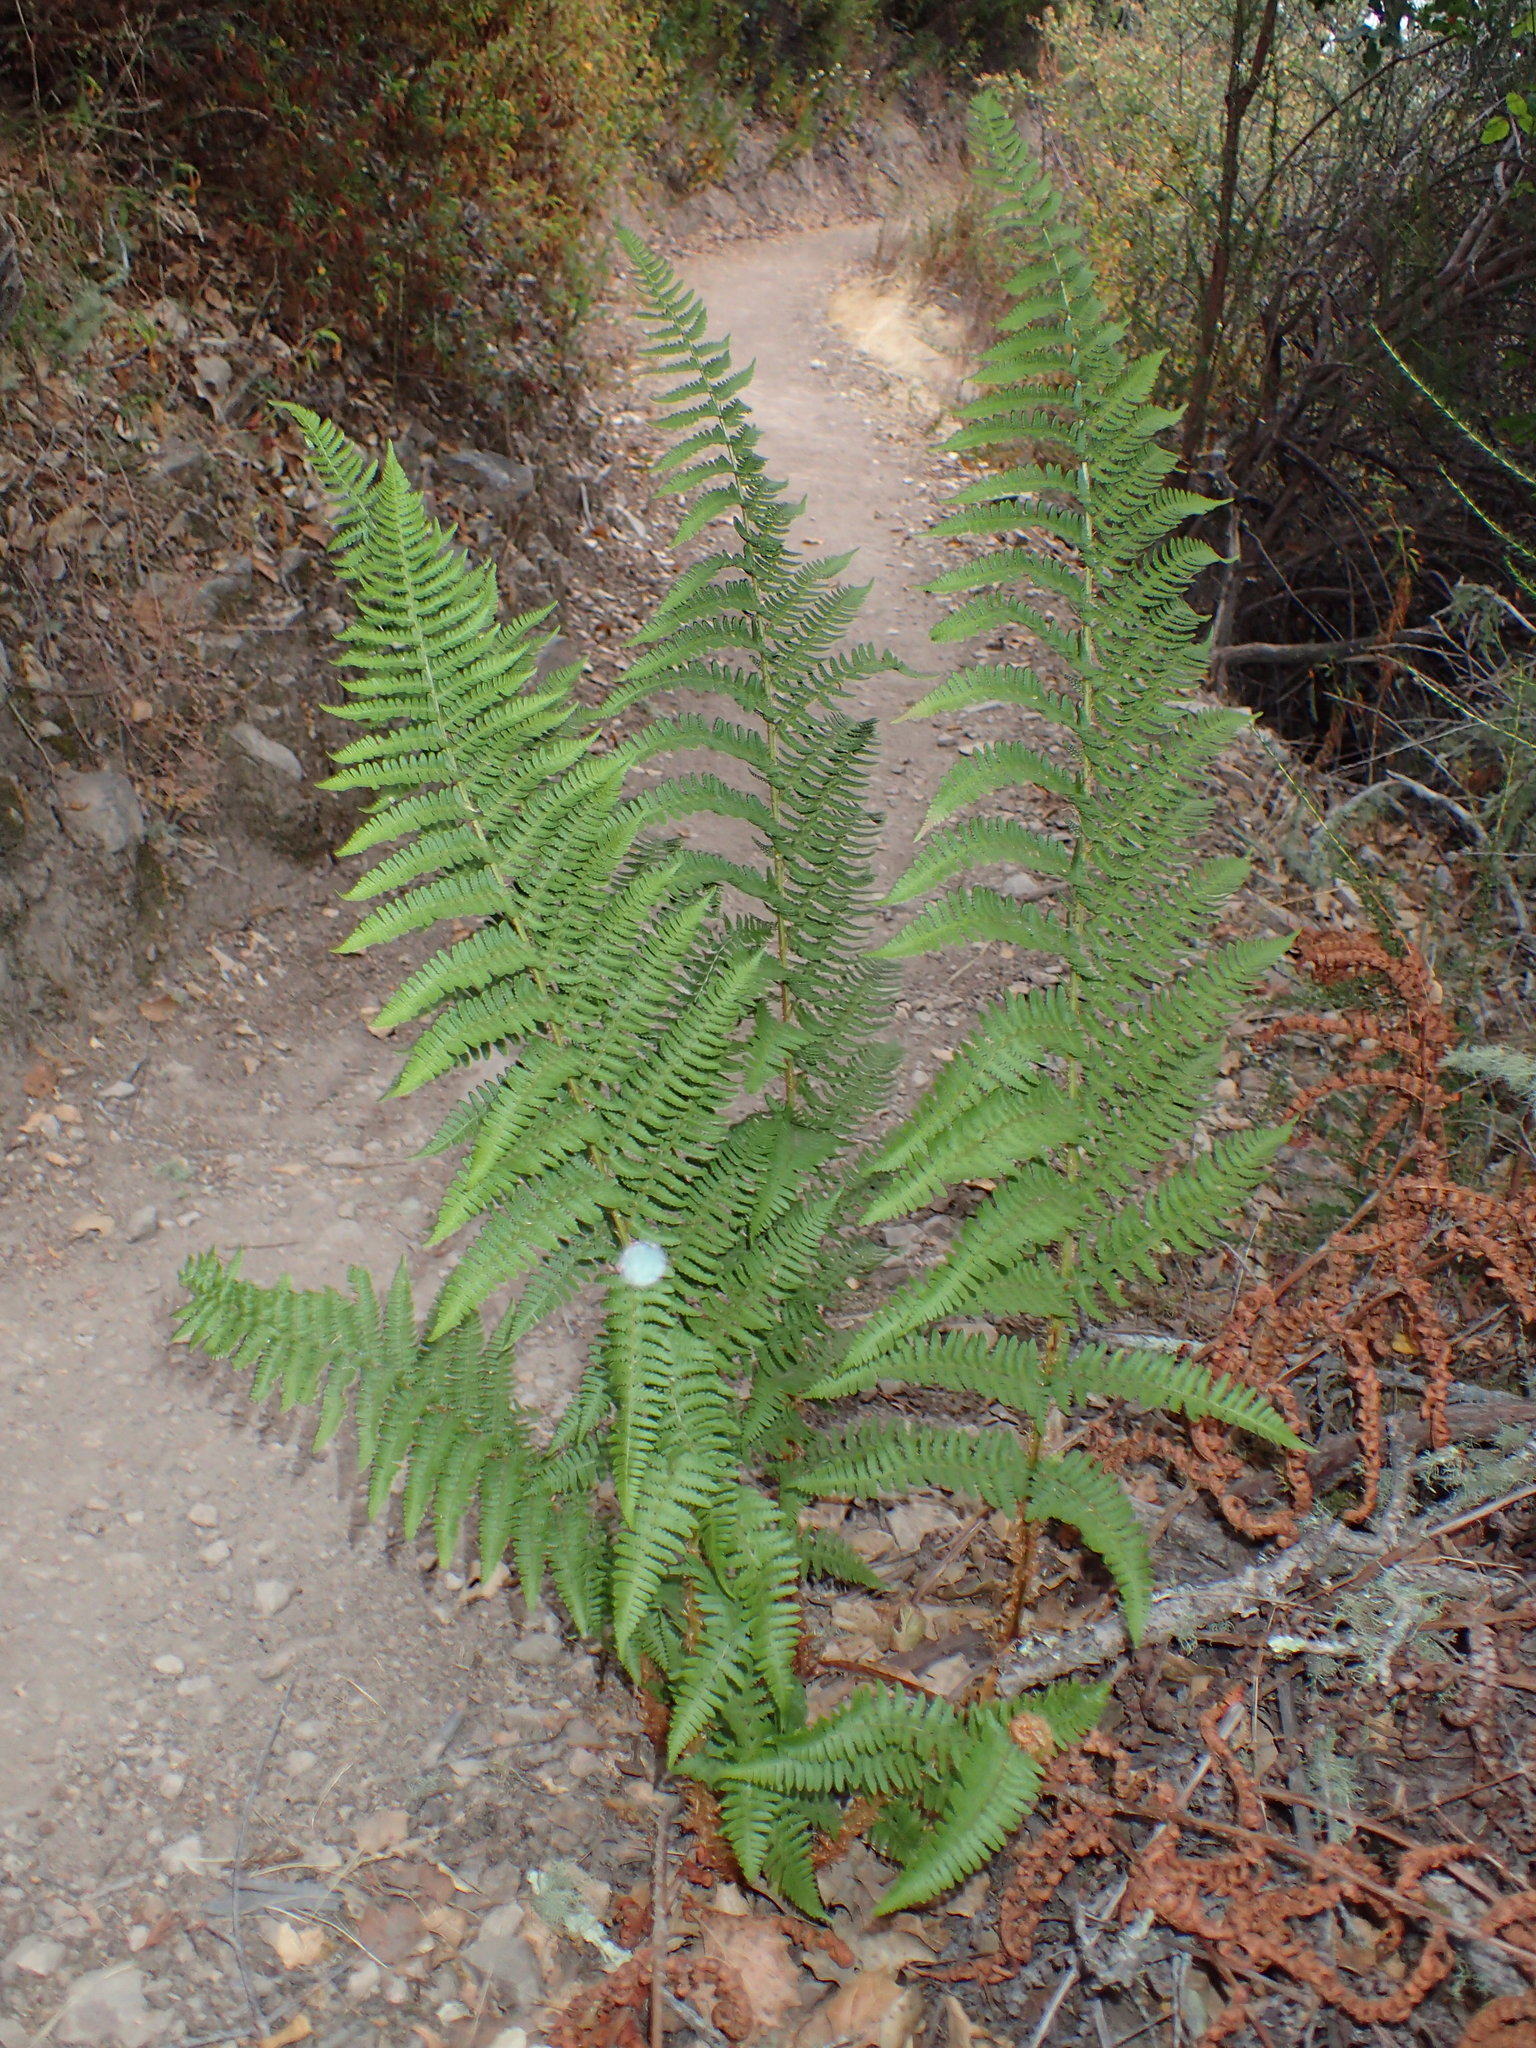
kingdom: Plantae
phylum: Tracheophyta
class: Polypodiopsida
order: Polypodiales
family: Dryopteridaceae
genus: Dryopteris
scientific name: Dryopteris arguta
